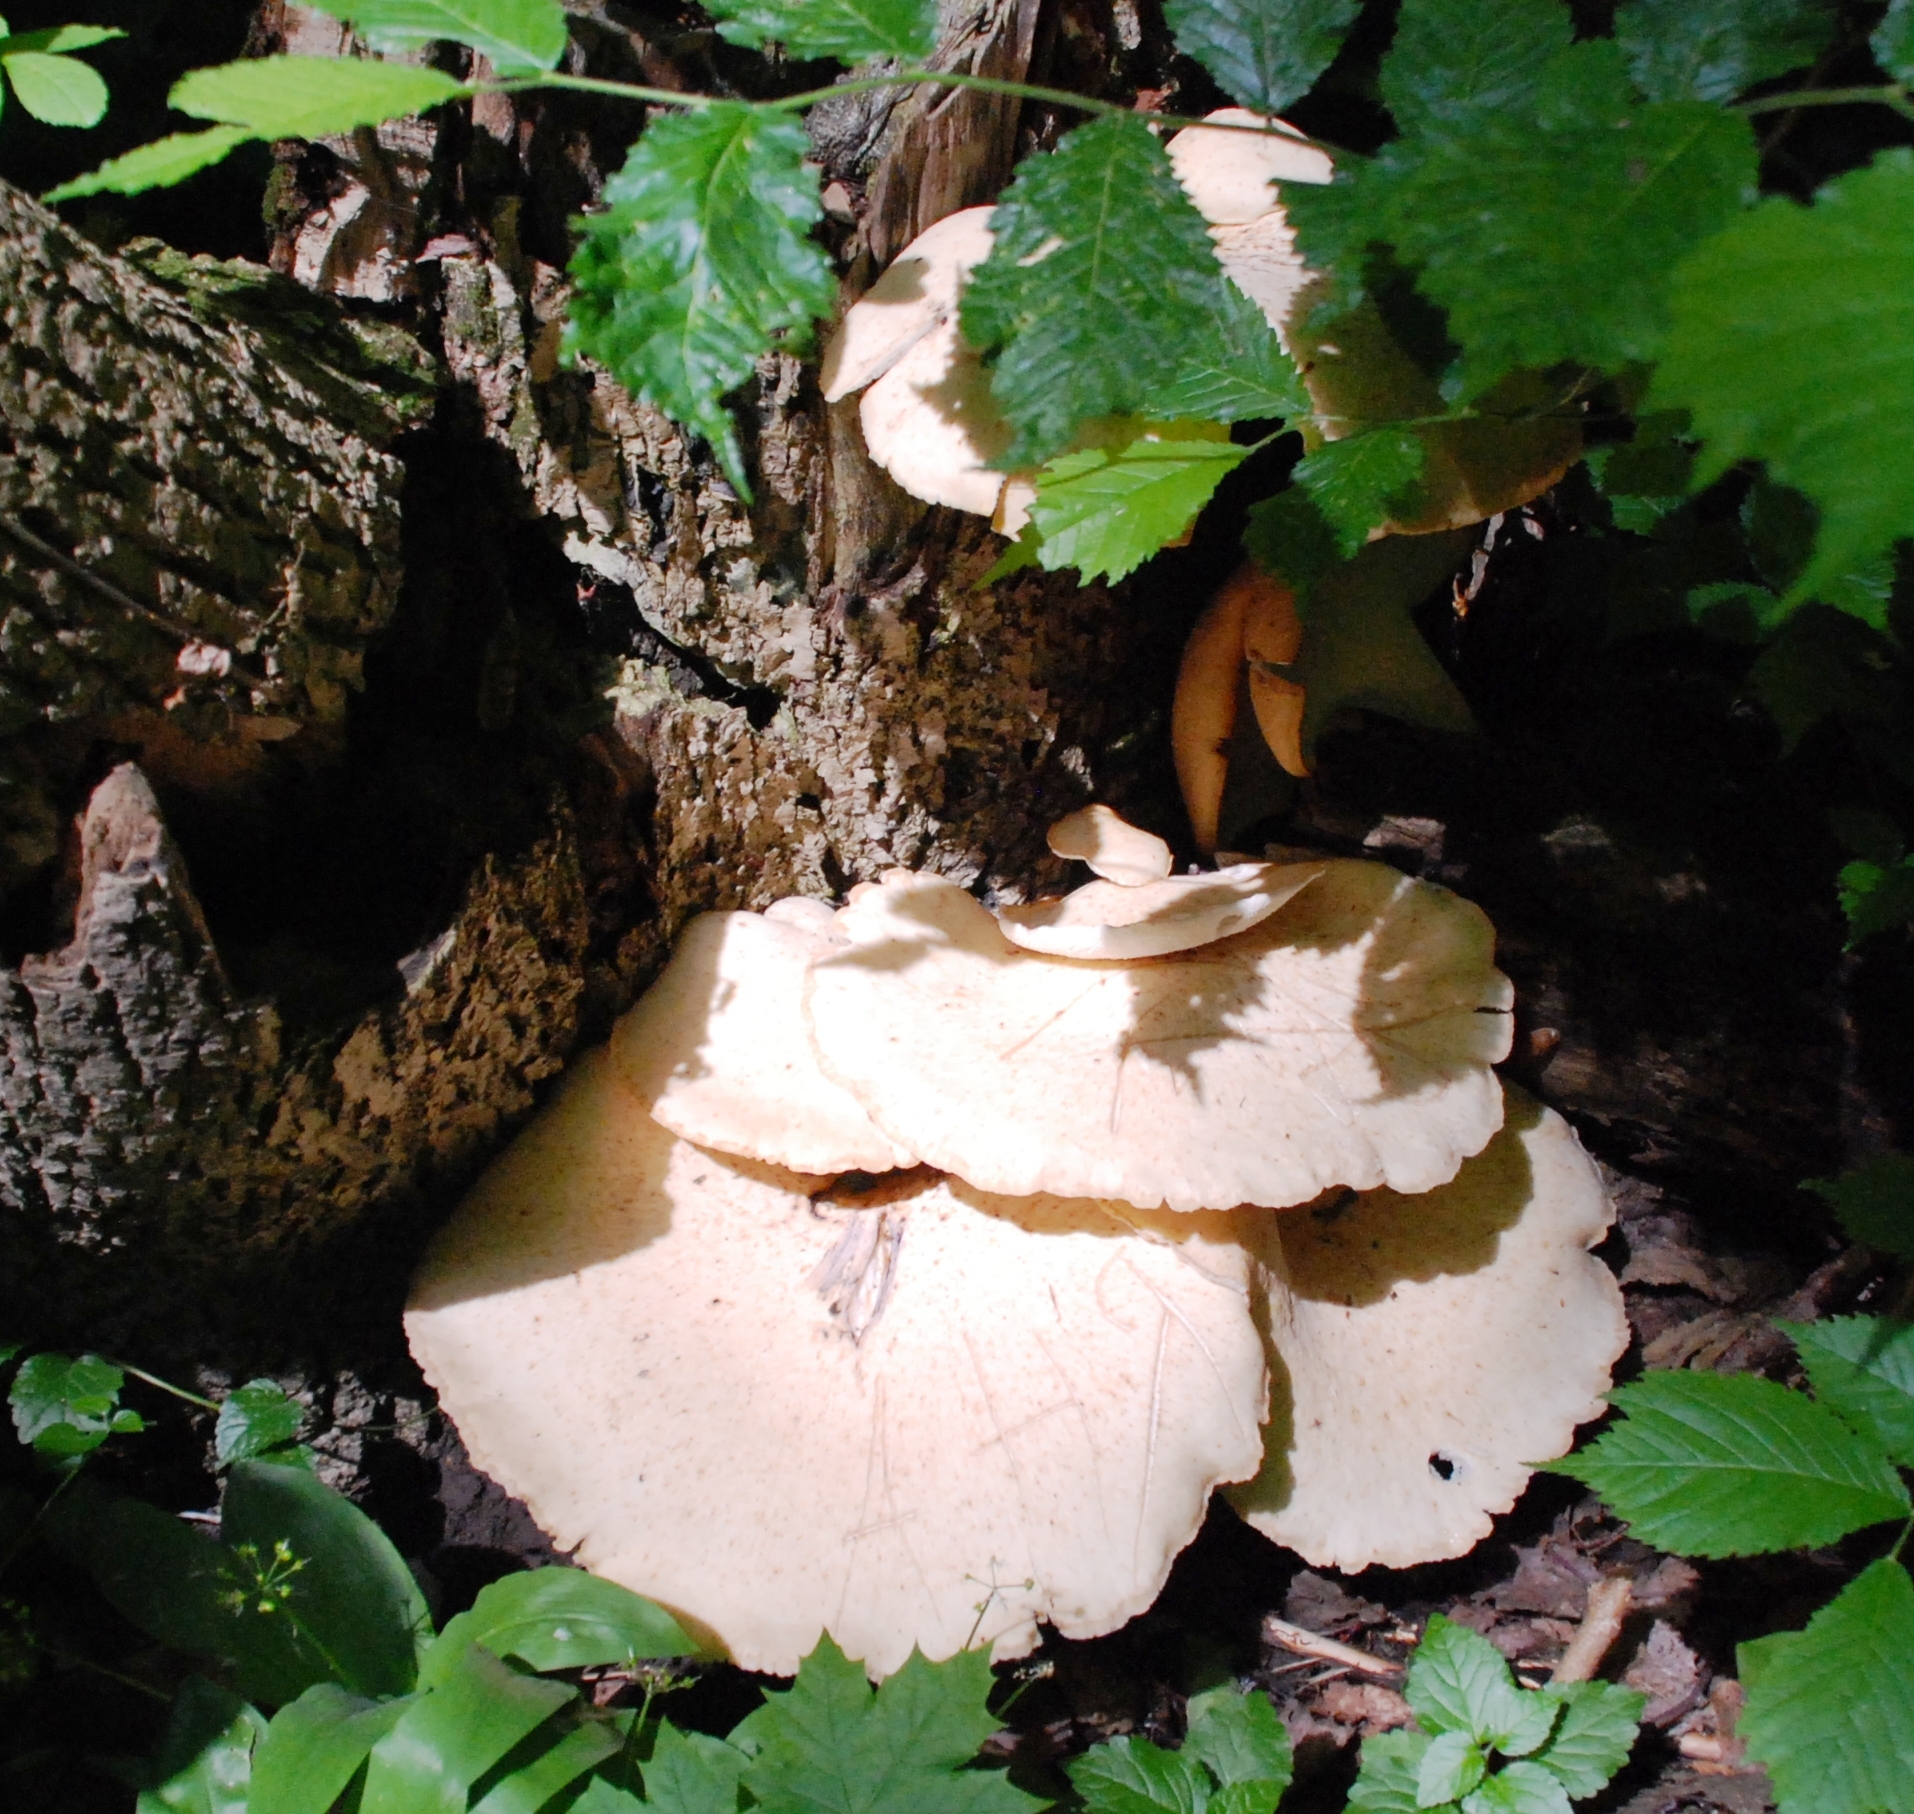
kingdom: Fungi
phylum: Basidiomycota
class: Agaricomycetes
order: Polyporales
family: Polyporaceae
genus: Cerioporus
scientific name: Cerioporus squamosus
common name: Dryad's saddle
